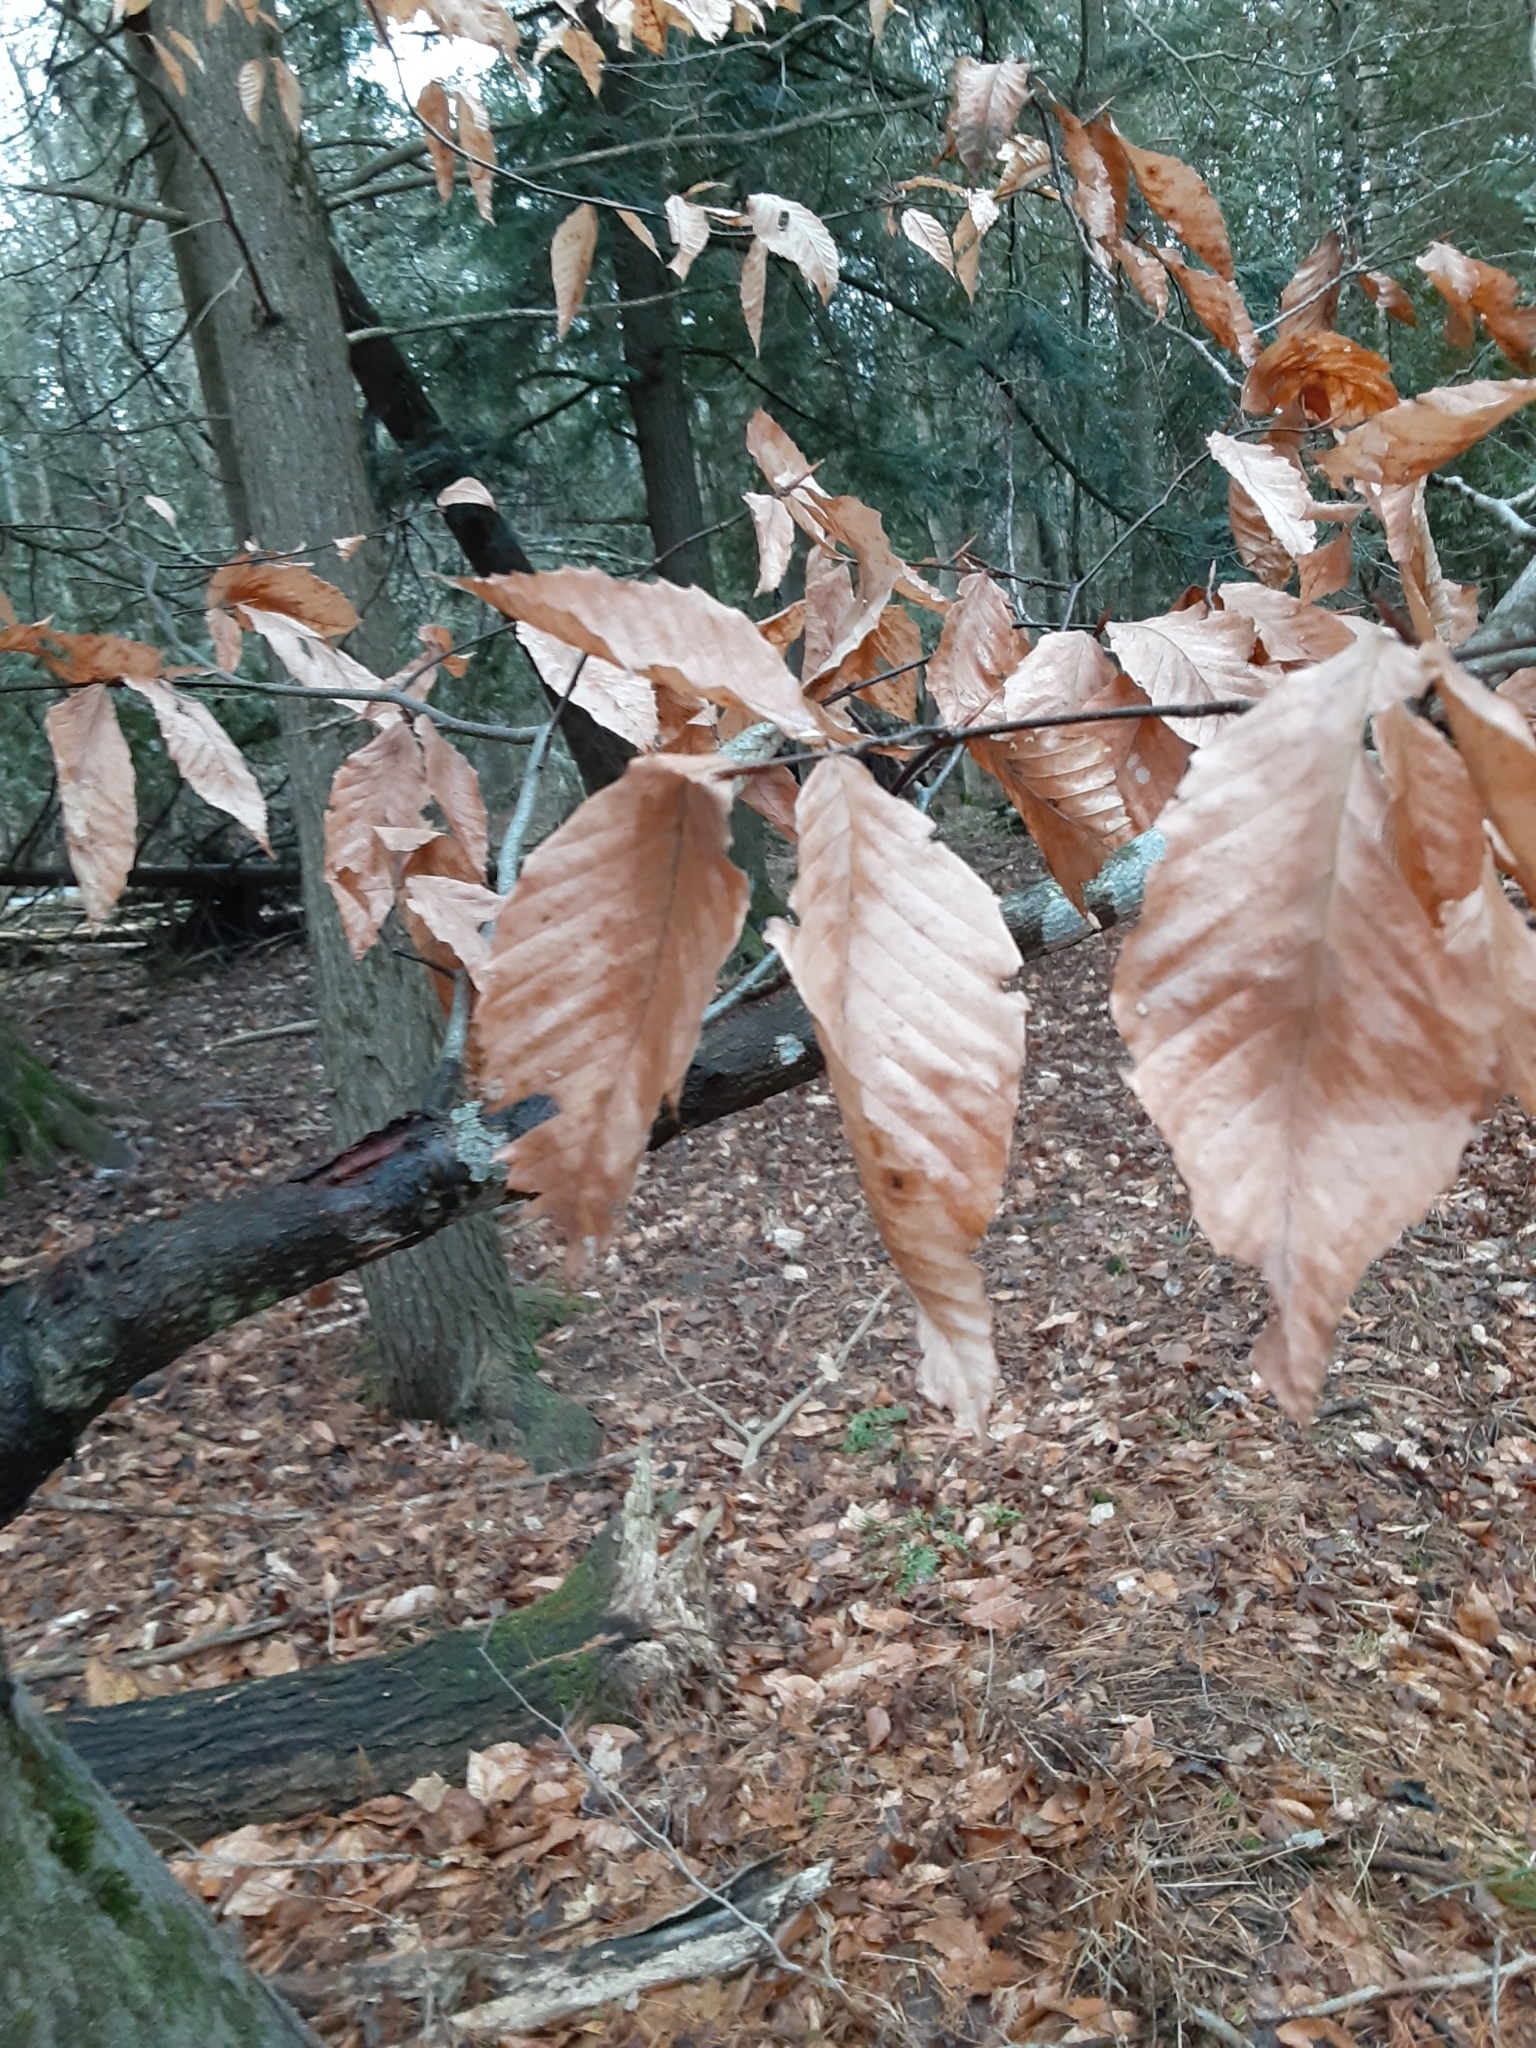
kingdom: Plantae
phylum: Tracheophyta
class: Magnoliopsida
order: Fagales
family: Fagaceae
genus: Fagus
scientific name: Fagus grandifolia
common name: American beech
